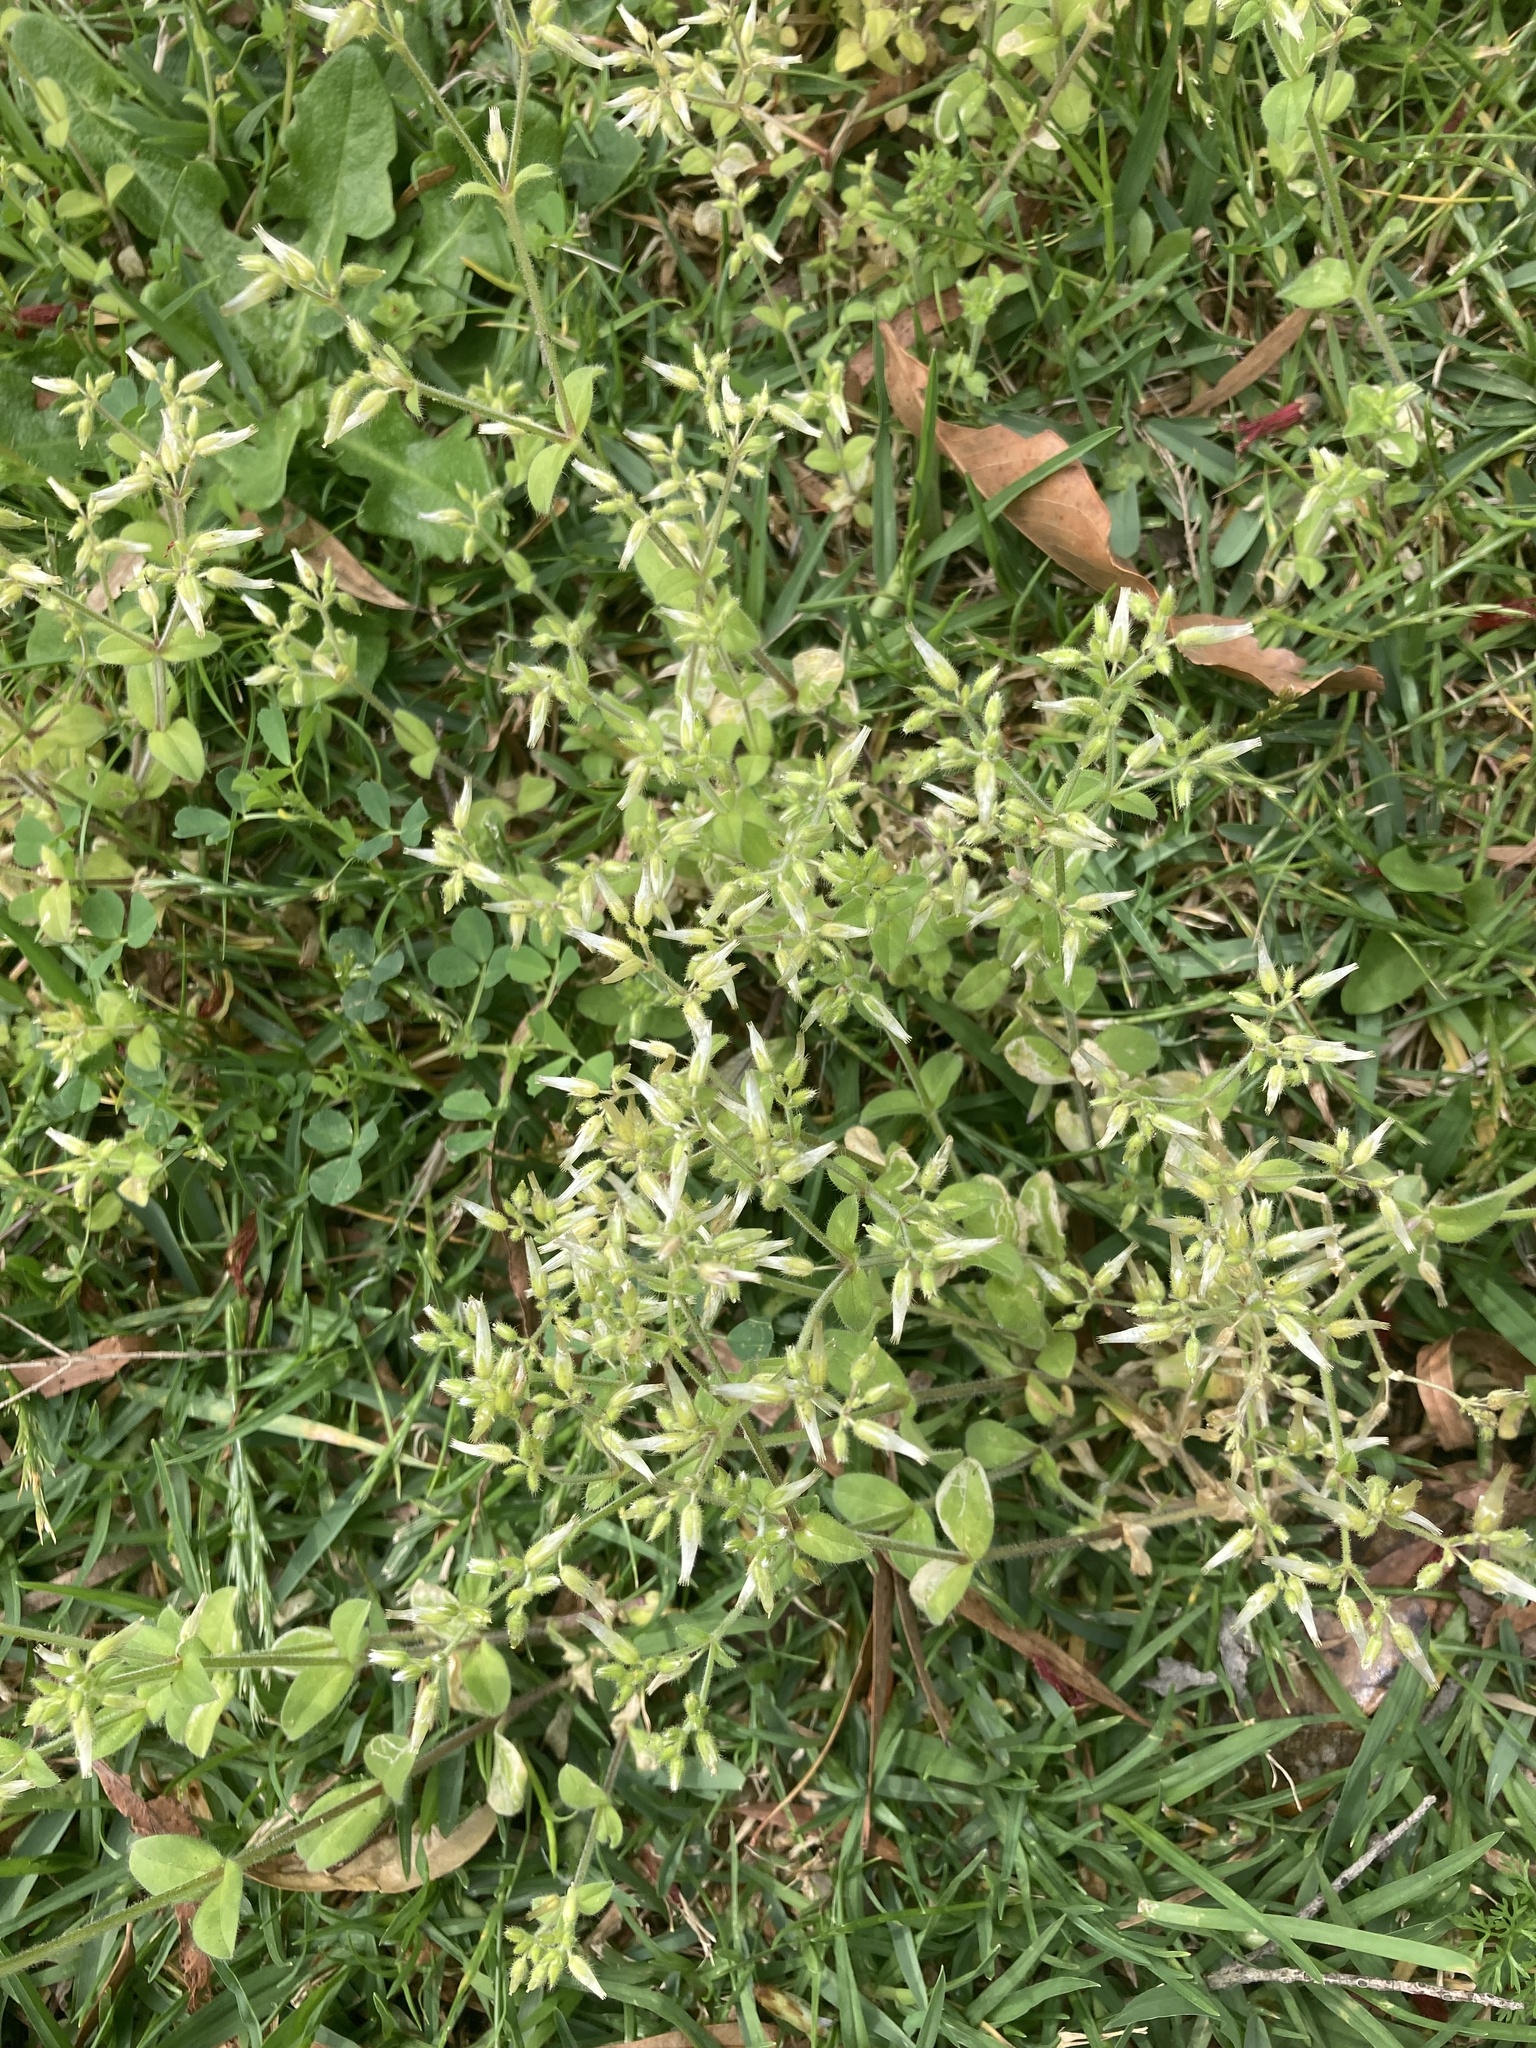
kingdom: Plantae
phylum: Tracheophyta
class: Magnoliopsida
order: Caryophyllales
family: Caryophyllaceae
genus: Cerastium
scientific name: Cerastium glomeratum
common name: Sticky chickweed
